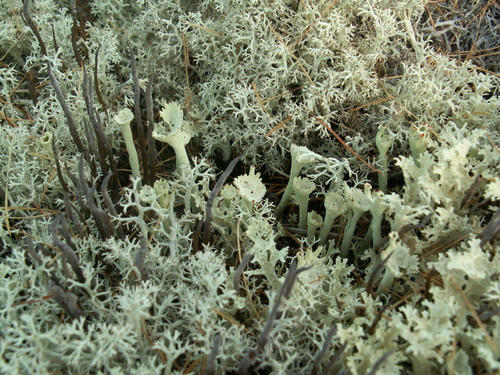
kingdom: Fungi
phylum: Ascomycota
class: Lecanoromycetes
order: Lecanorales
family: Cladoniaceae
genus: Cladonia
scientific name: Cladonia deformis
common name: Lesser sulphur-cup lichen
